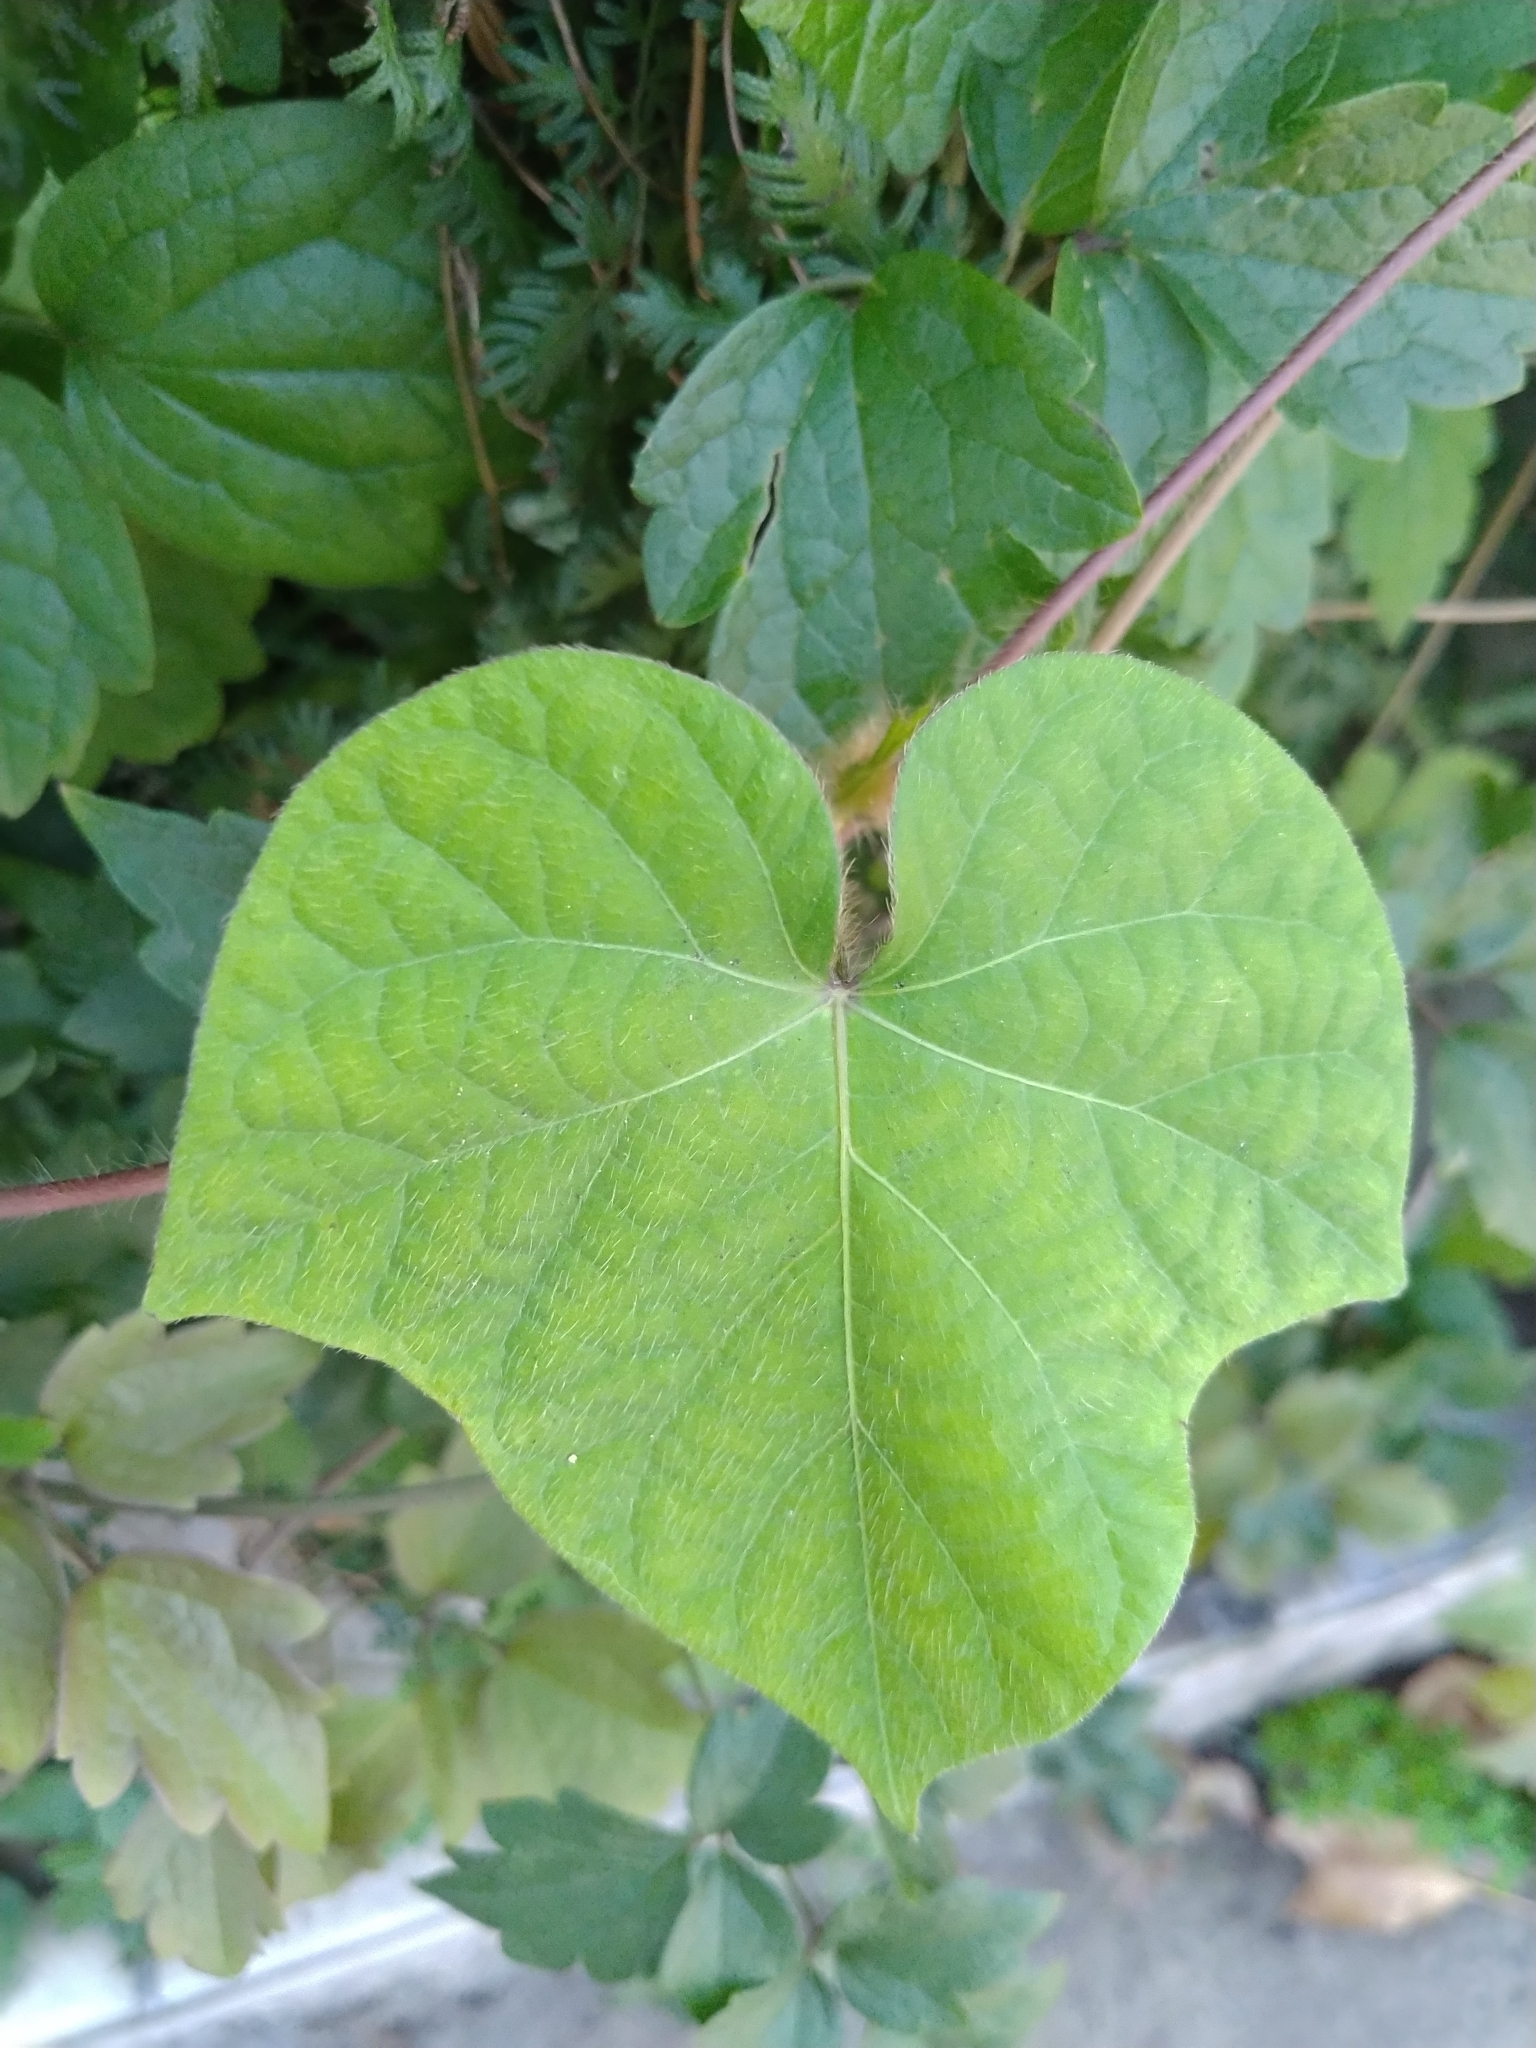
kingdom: Plantae
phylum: Tracheophyta
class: Magnoliopsida
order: Solanales
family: Convolvulaceae
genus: Ipomoea
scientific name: Ipomoea nil
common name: Japanese morning-glory
